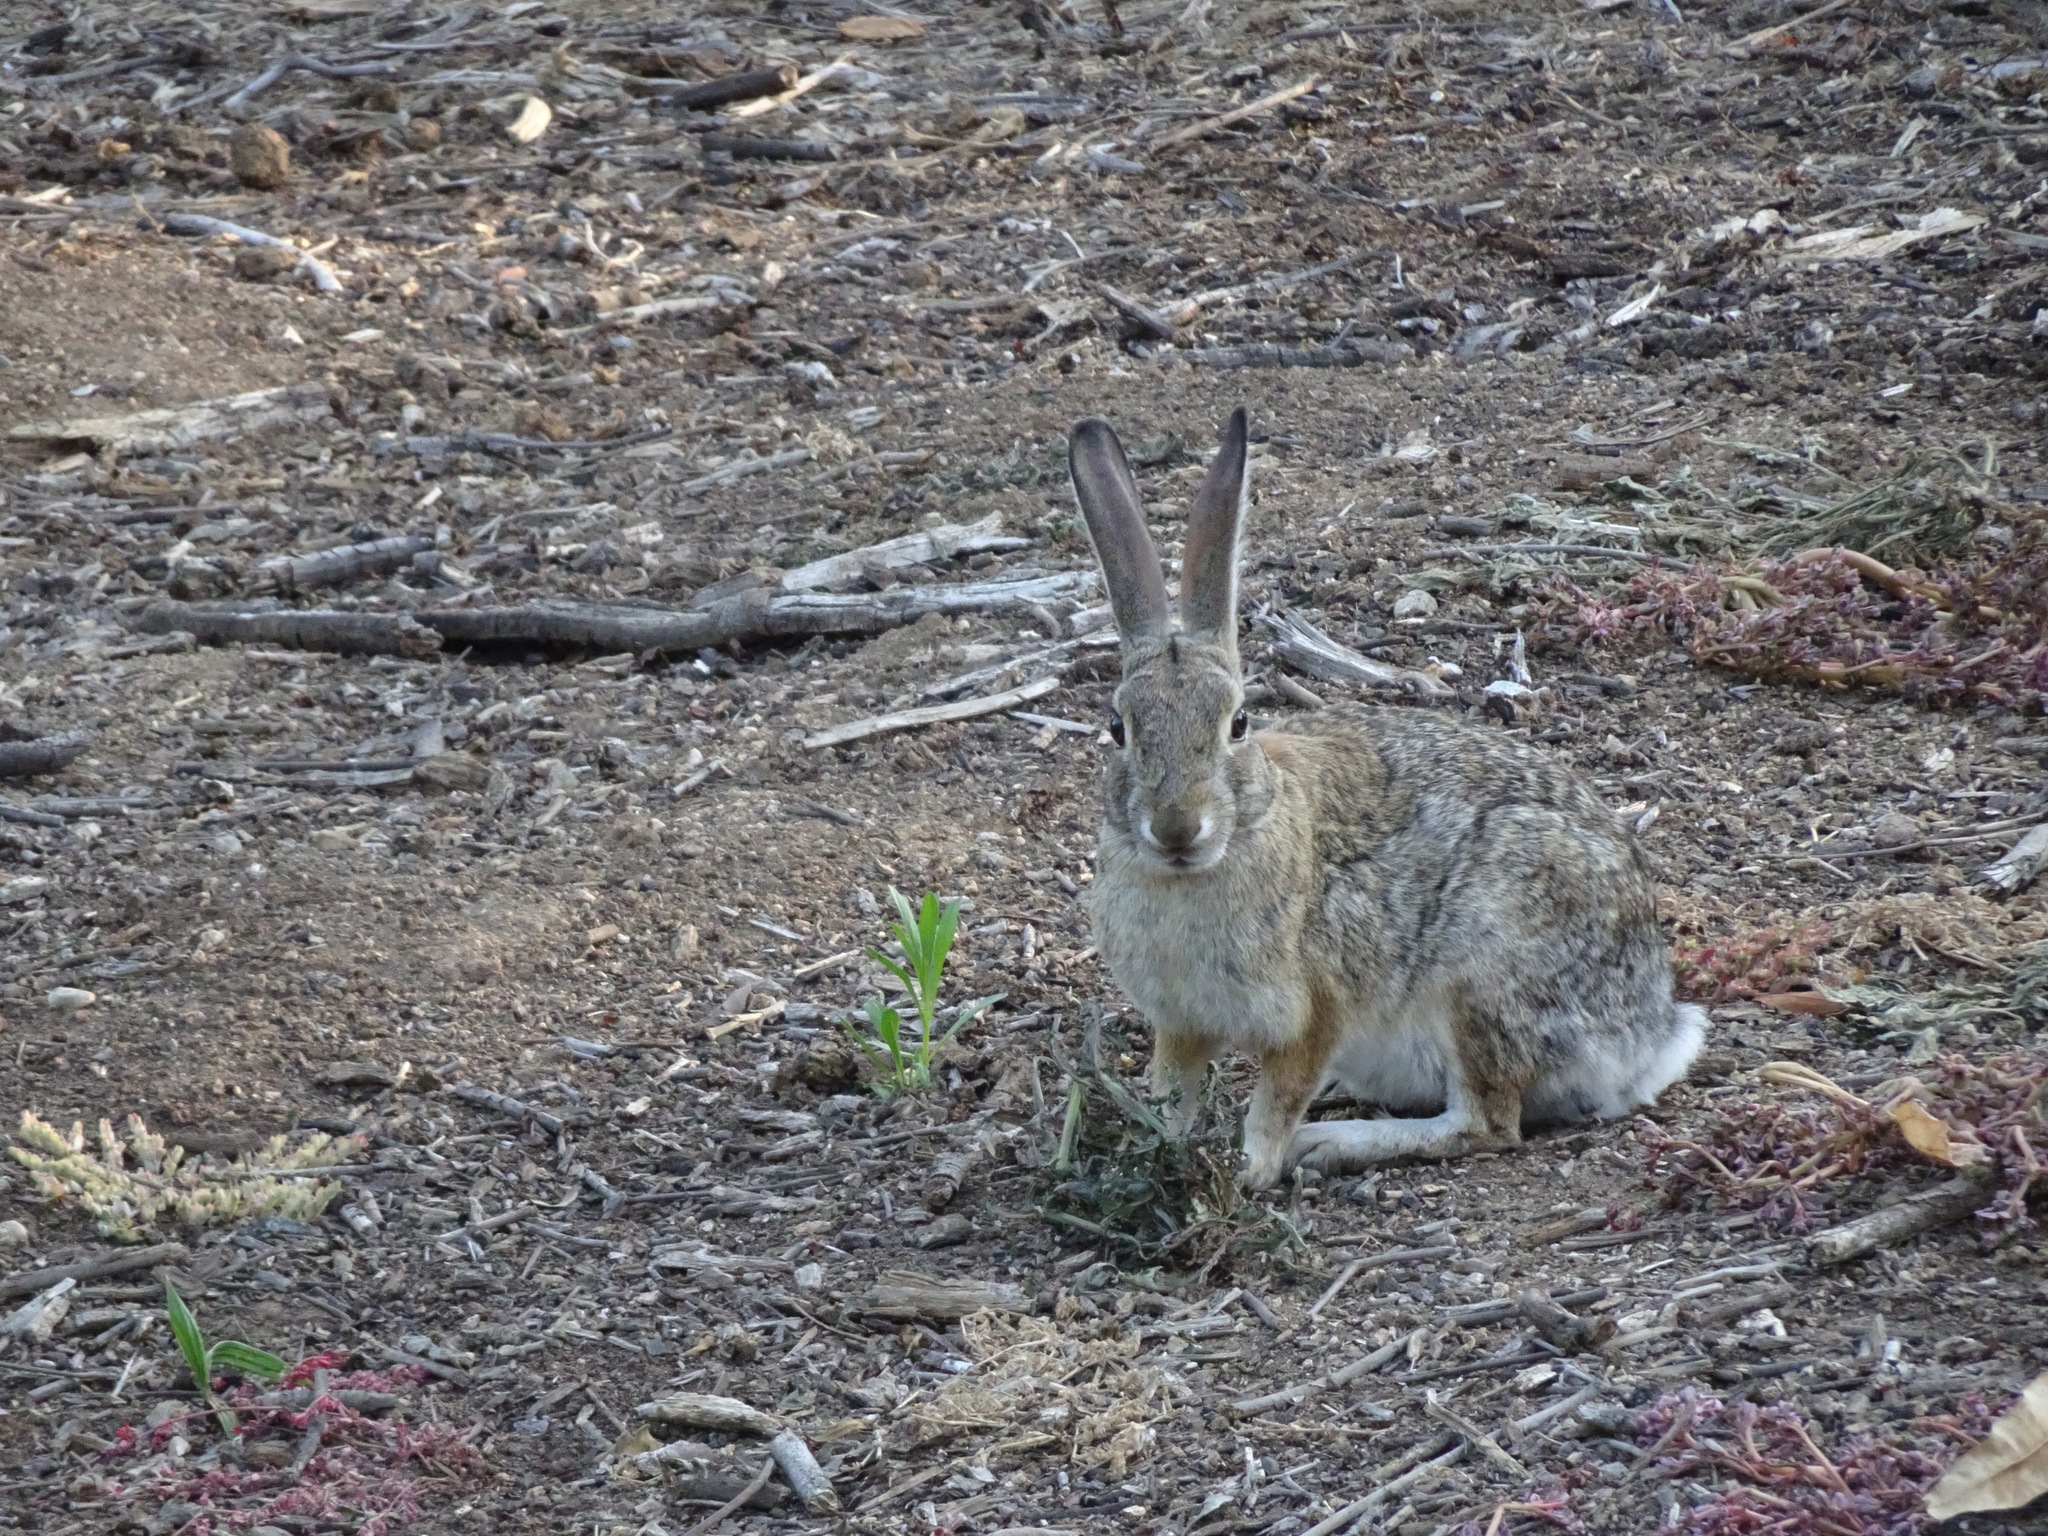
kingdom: Animalia
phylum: Chordata
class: Mammalia
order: Lagomorpha
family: Leporidae
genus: Sylvilagus
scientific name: Sylvilagus audubonii
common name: Desert cottontail
